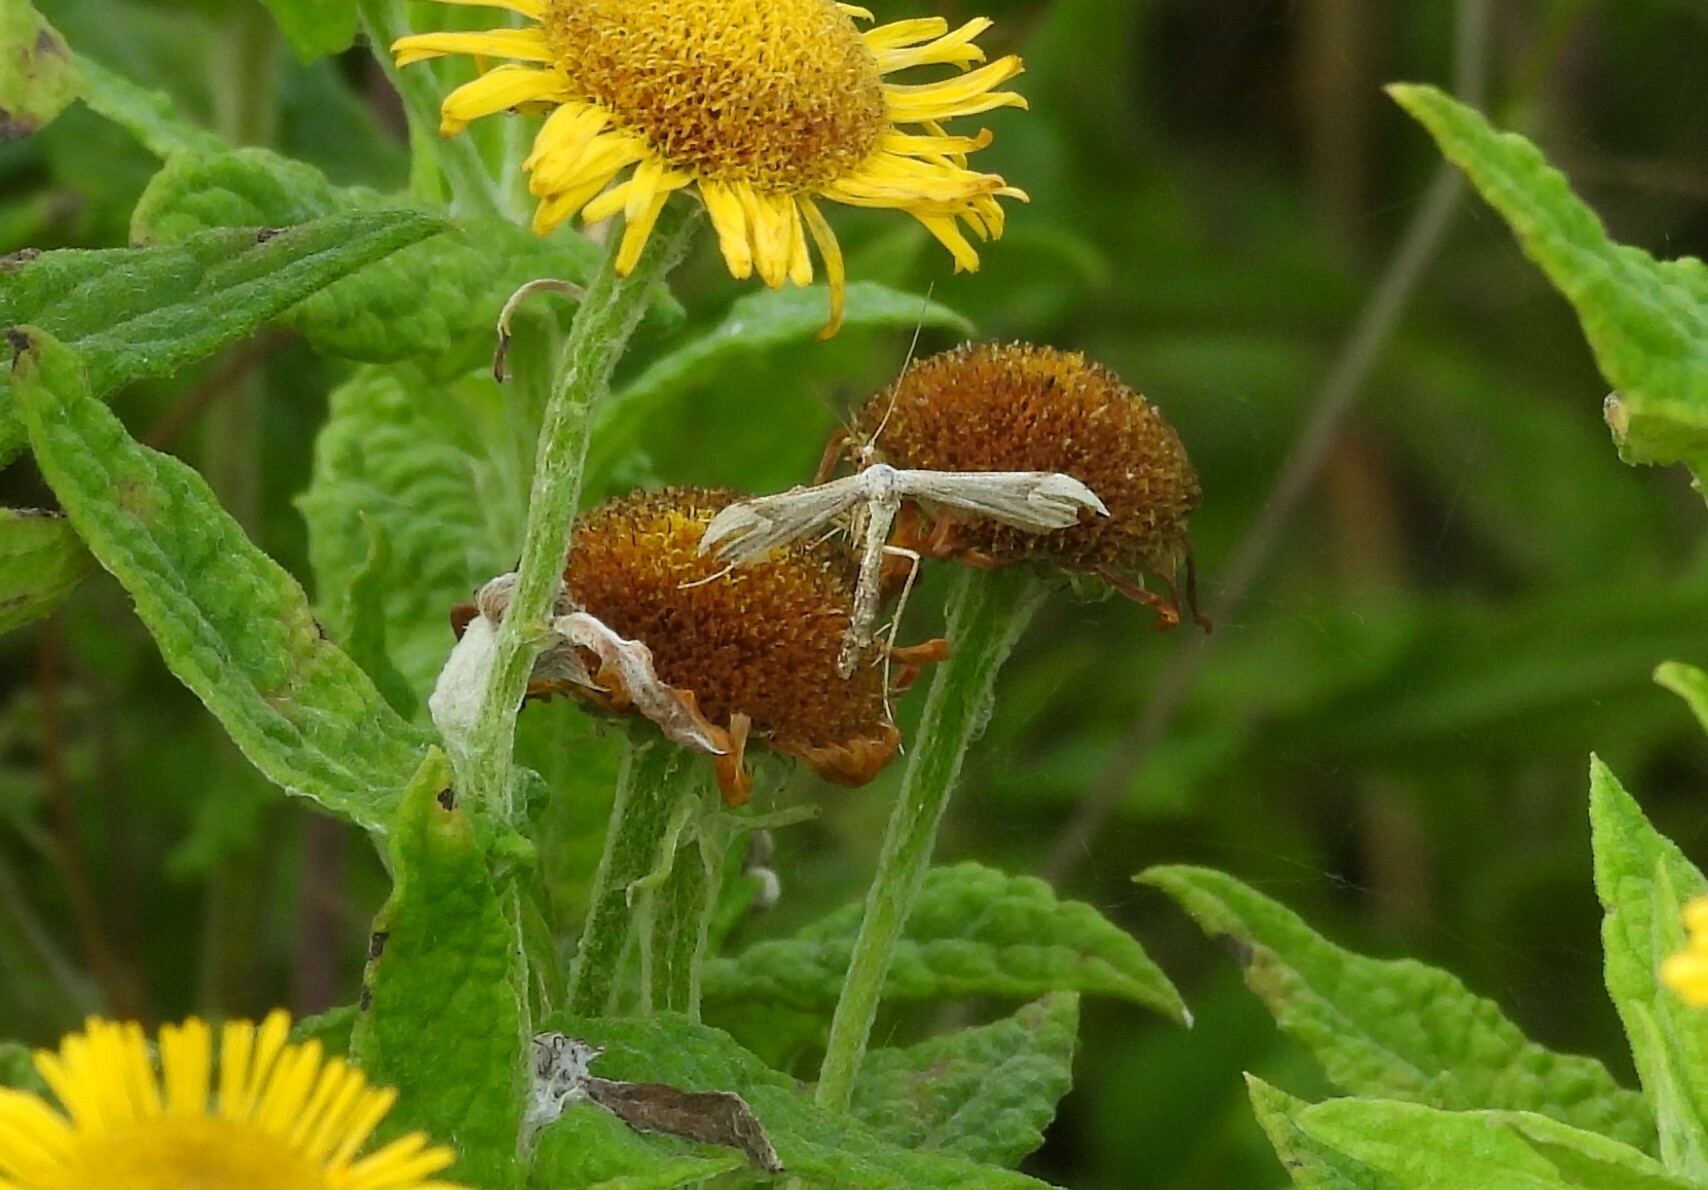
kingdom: Animalia
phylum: Arthropoda
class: Insecta
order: Lepidoptera
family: Pterophoridae
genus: Gillmeria
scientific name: Gillmeria pallidactyla
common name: Yarrow plume
